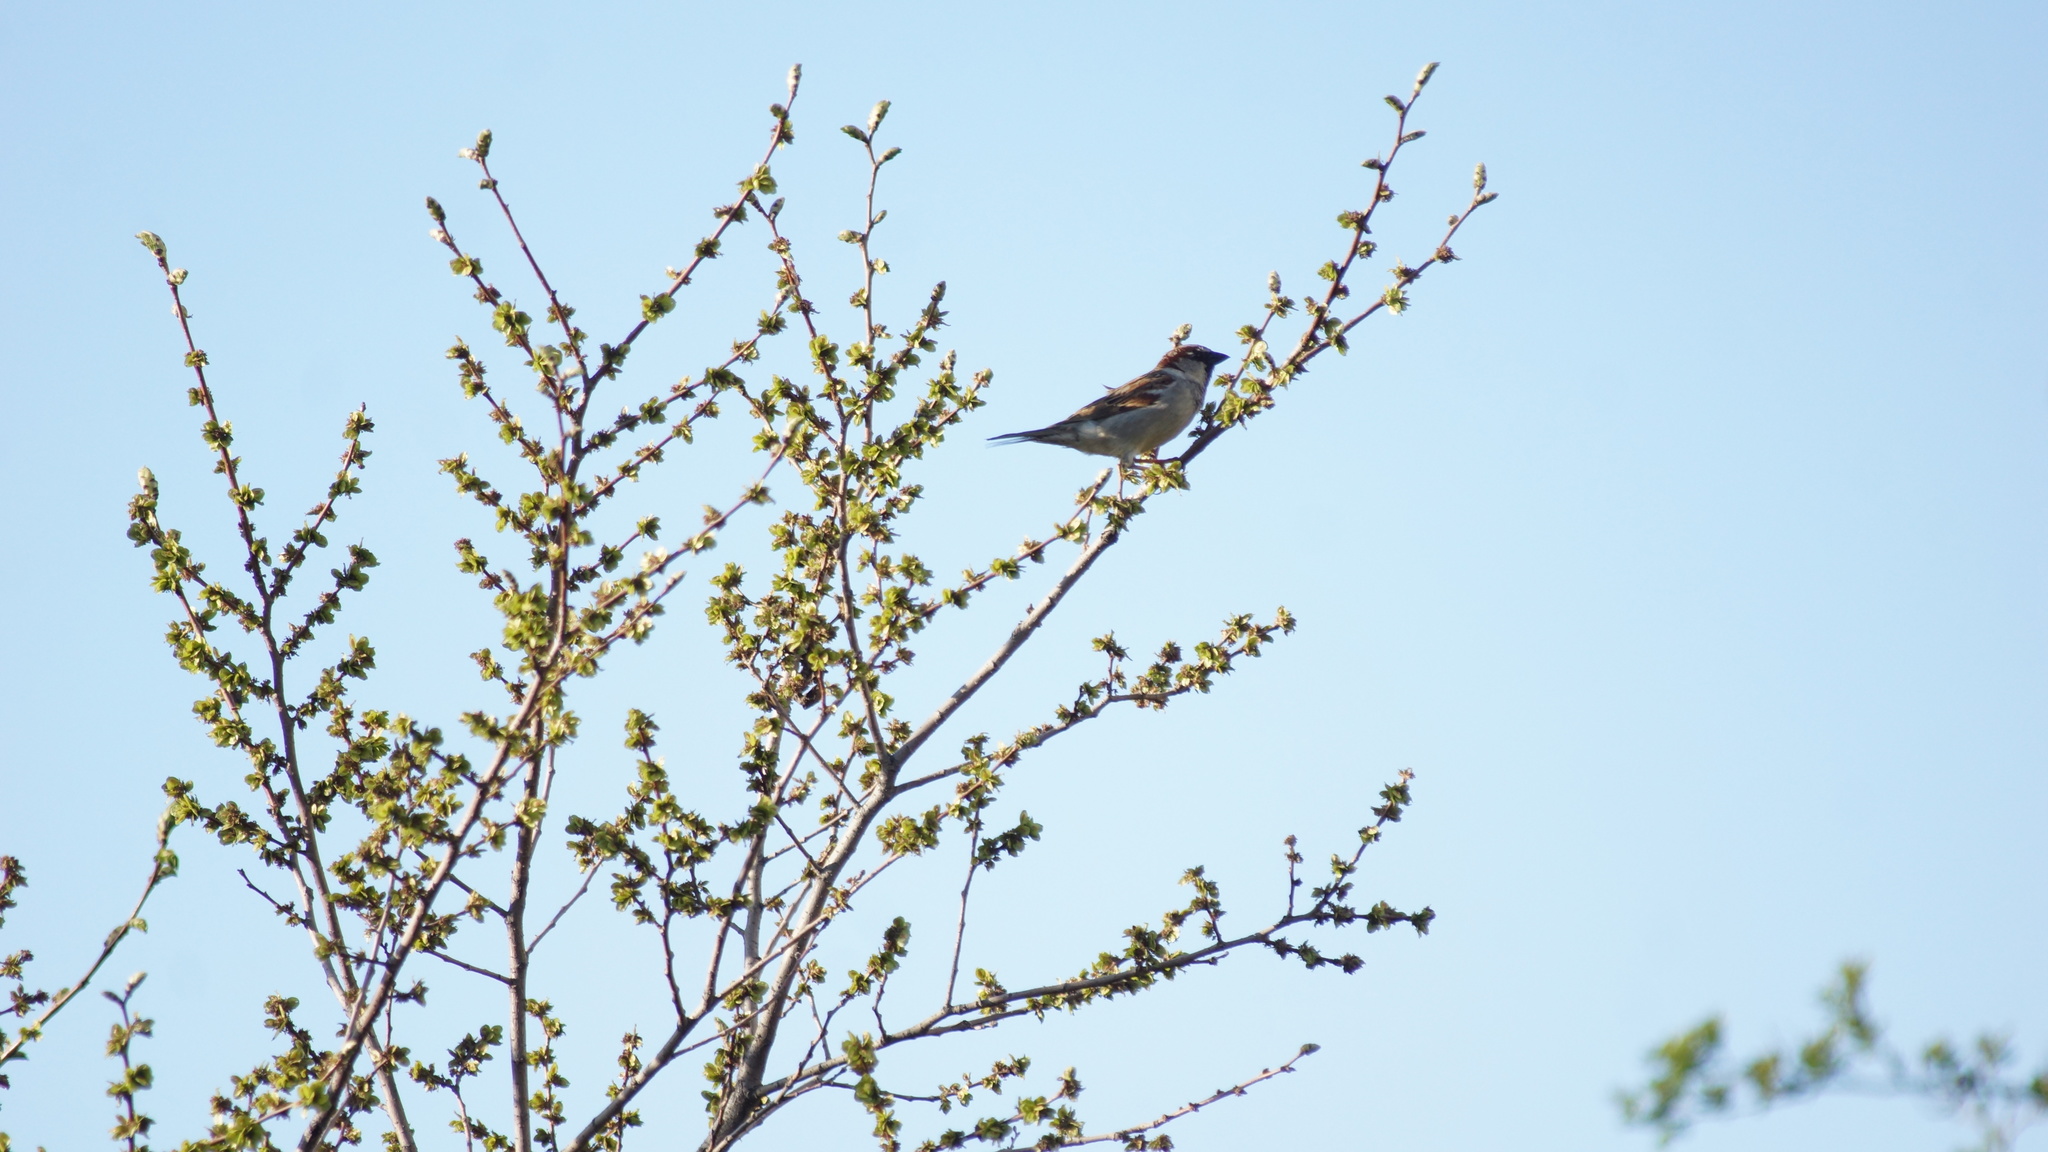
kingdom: Animalia
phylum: Chordata
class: Aves
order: Passeriformes
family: Passeridae
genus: Passer
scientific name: Passer domesticus
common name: House sparrow
